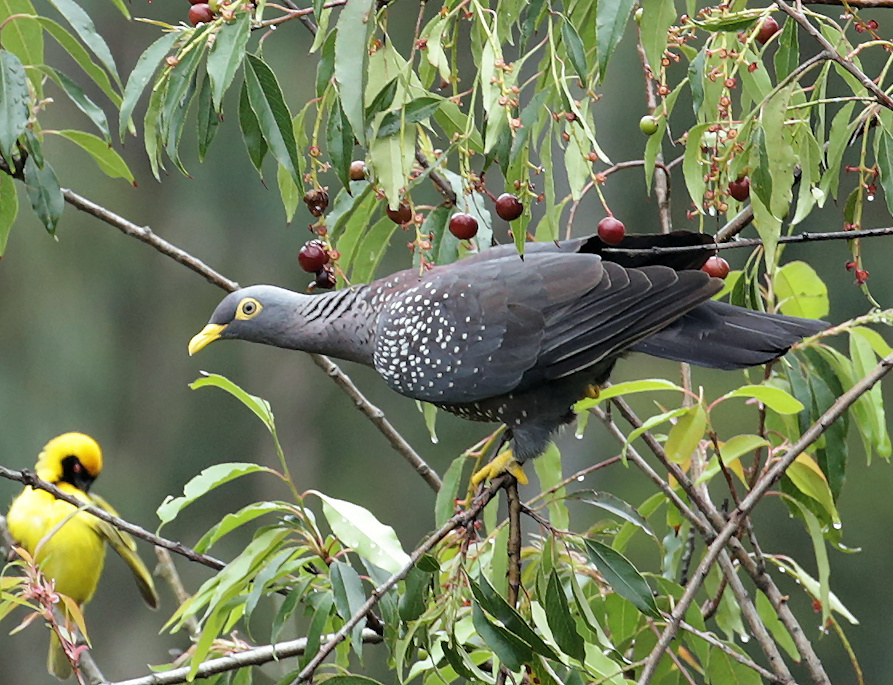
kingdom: Animalia
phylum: Chordata
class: Aves
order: Columbiformes
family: Columbidae
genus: Columba
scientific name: Columba arquatrix
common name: African olive pigeon
